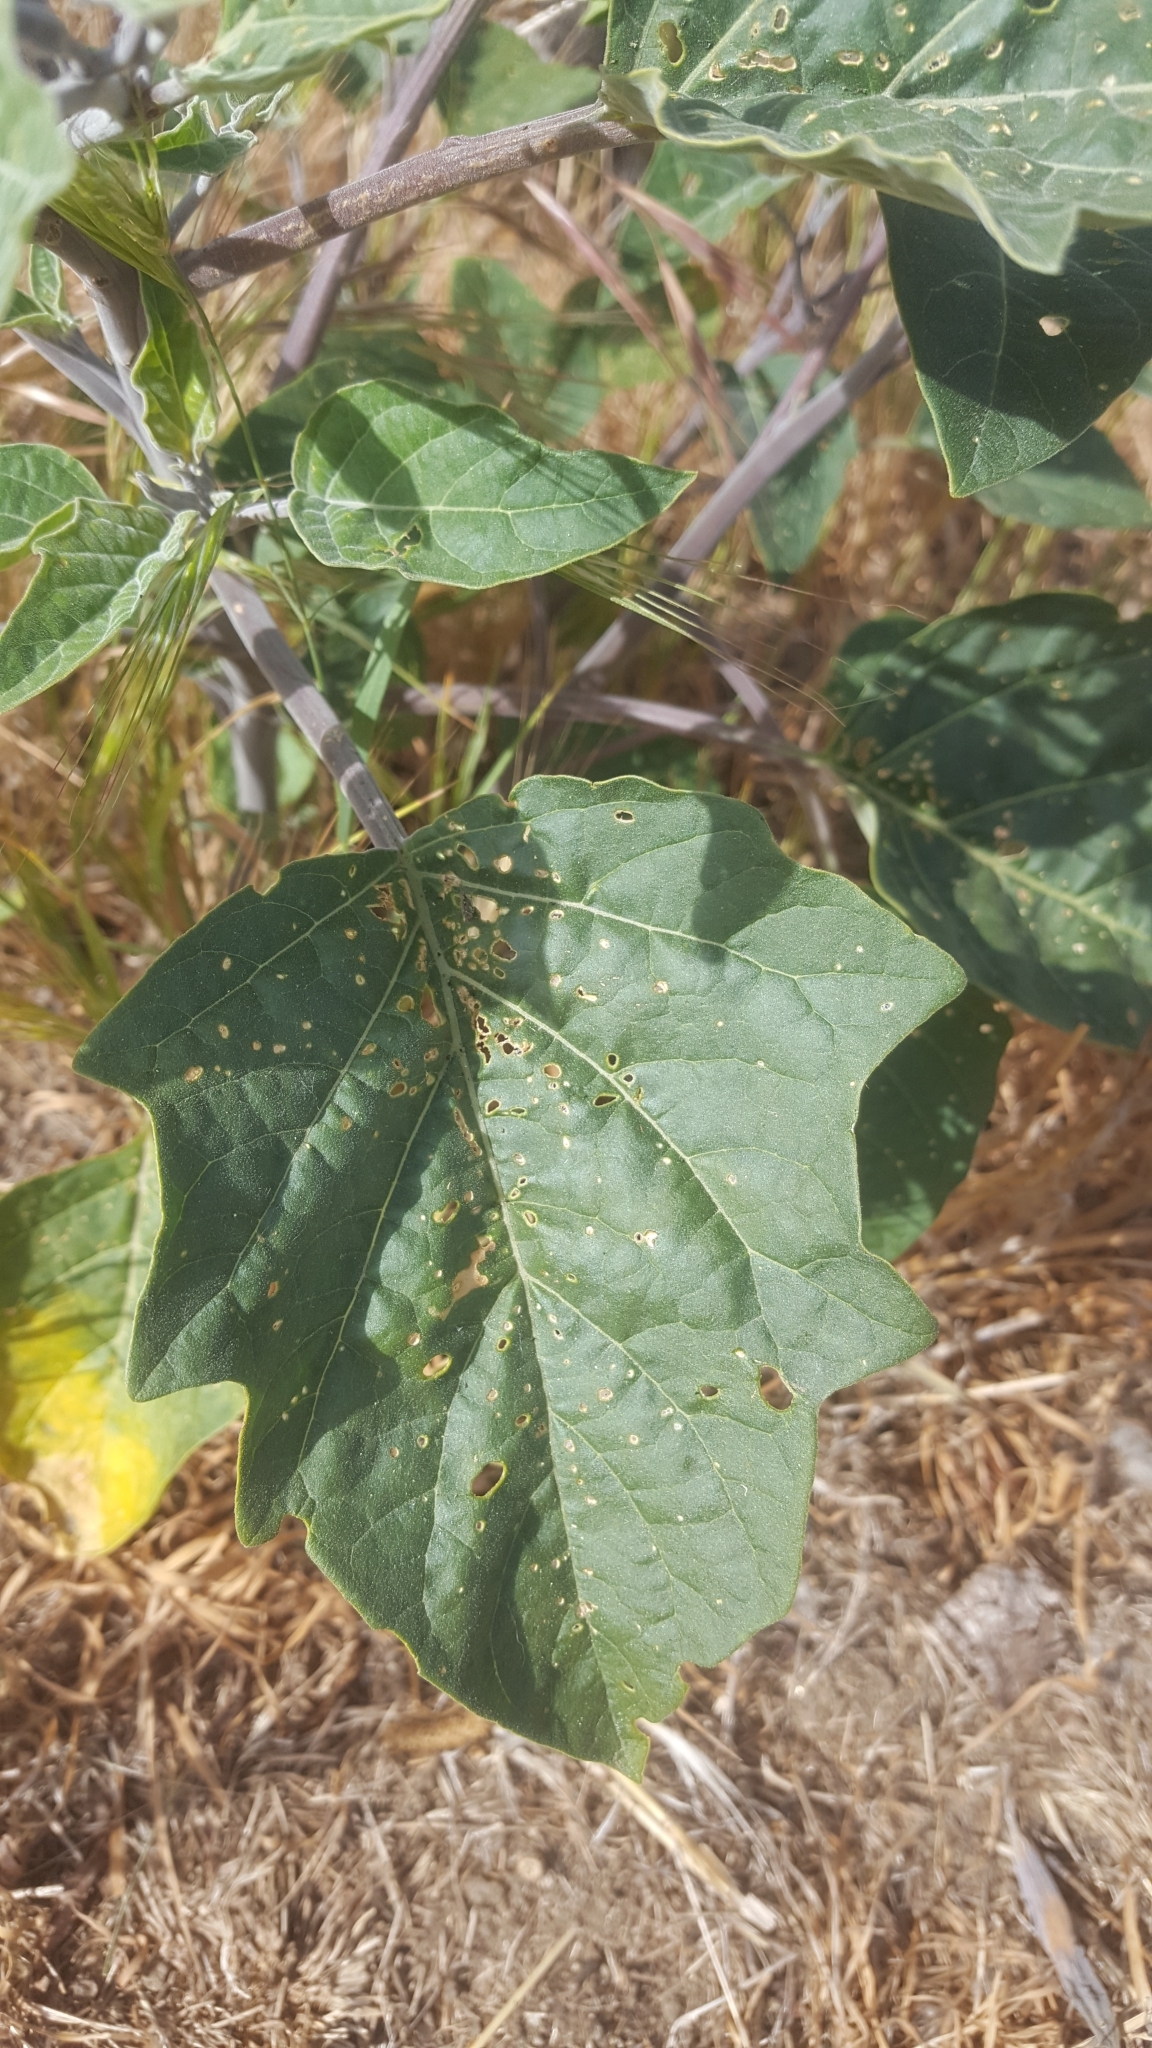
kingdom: Plantae
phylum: Tracheophyta
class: Magnoliopsida
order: Solanales
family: Solanaceae
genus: Datura
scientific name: Datura wrightii
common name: Sacred thorn-apple
